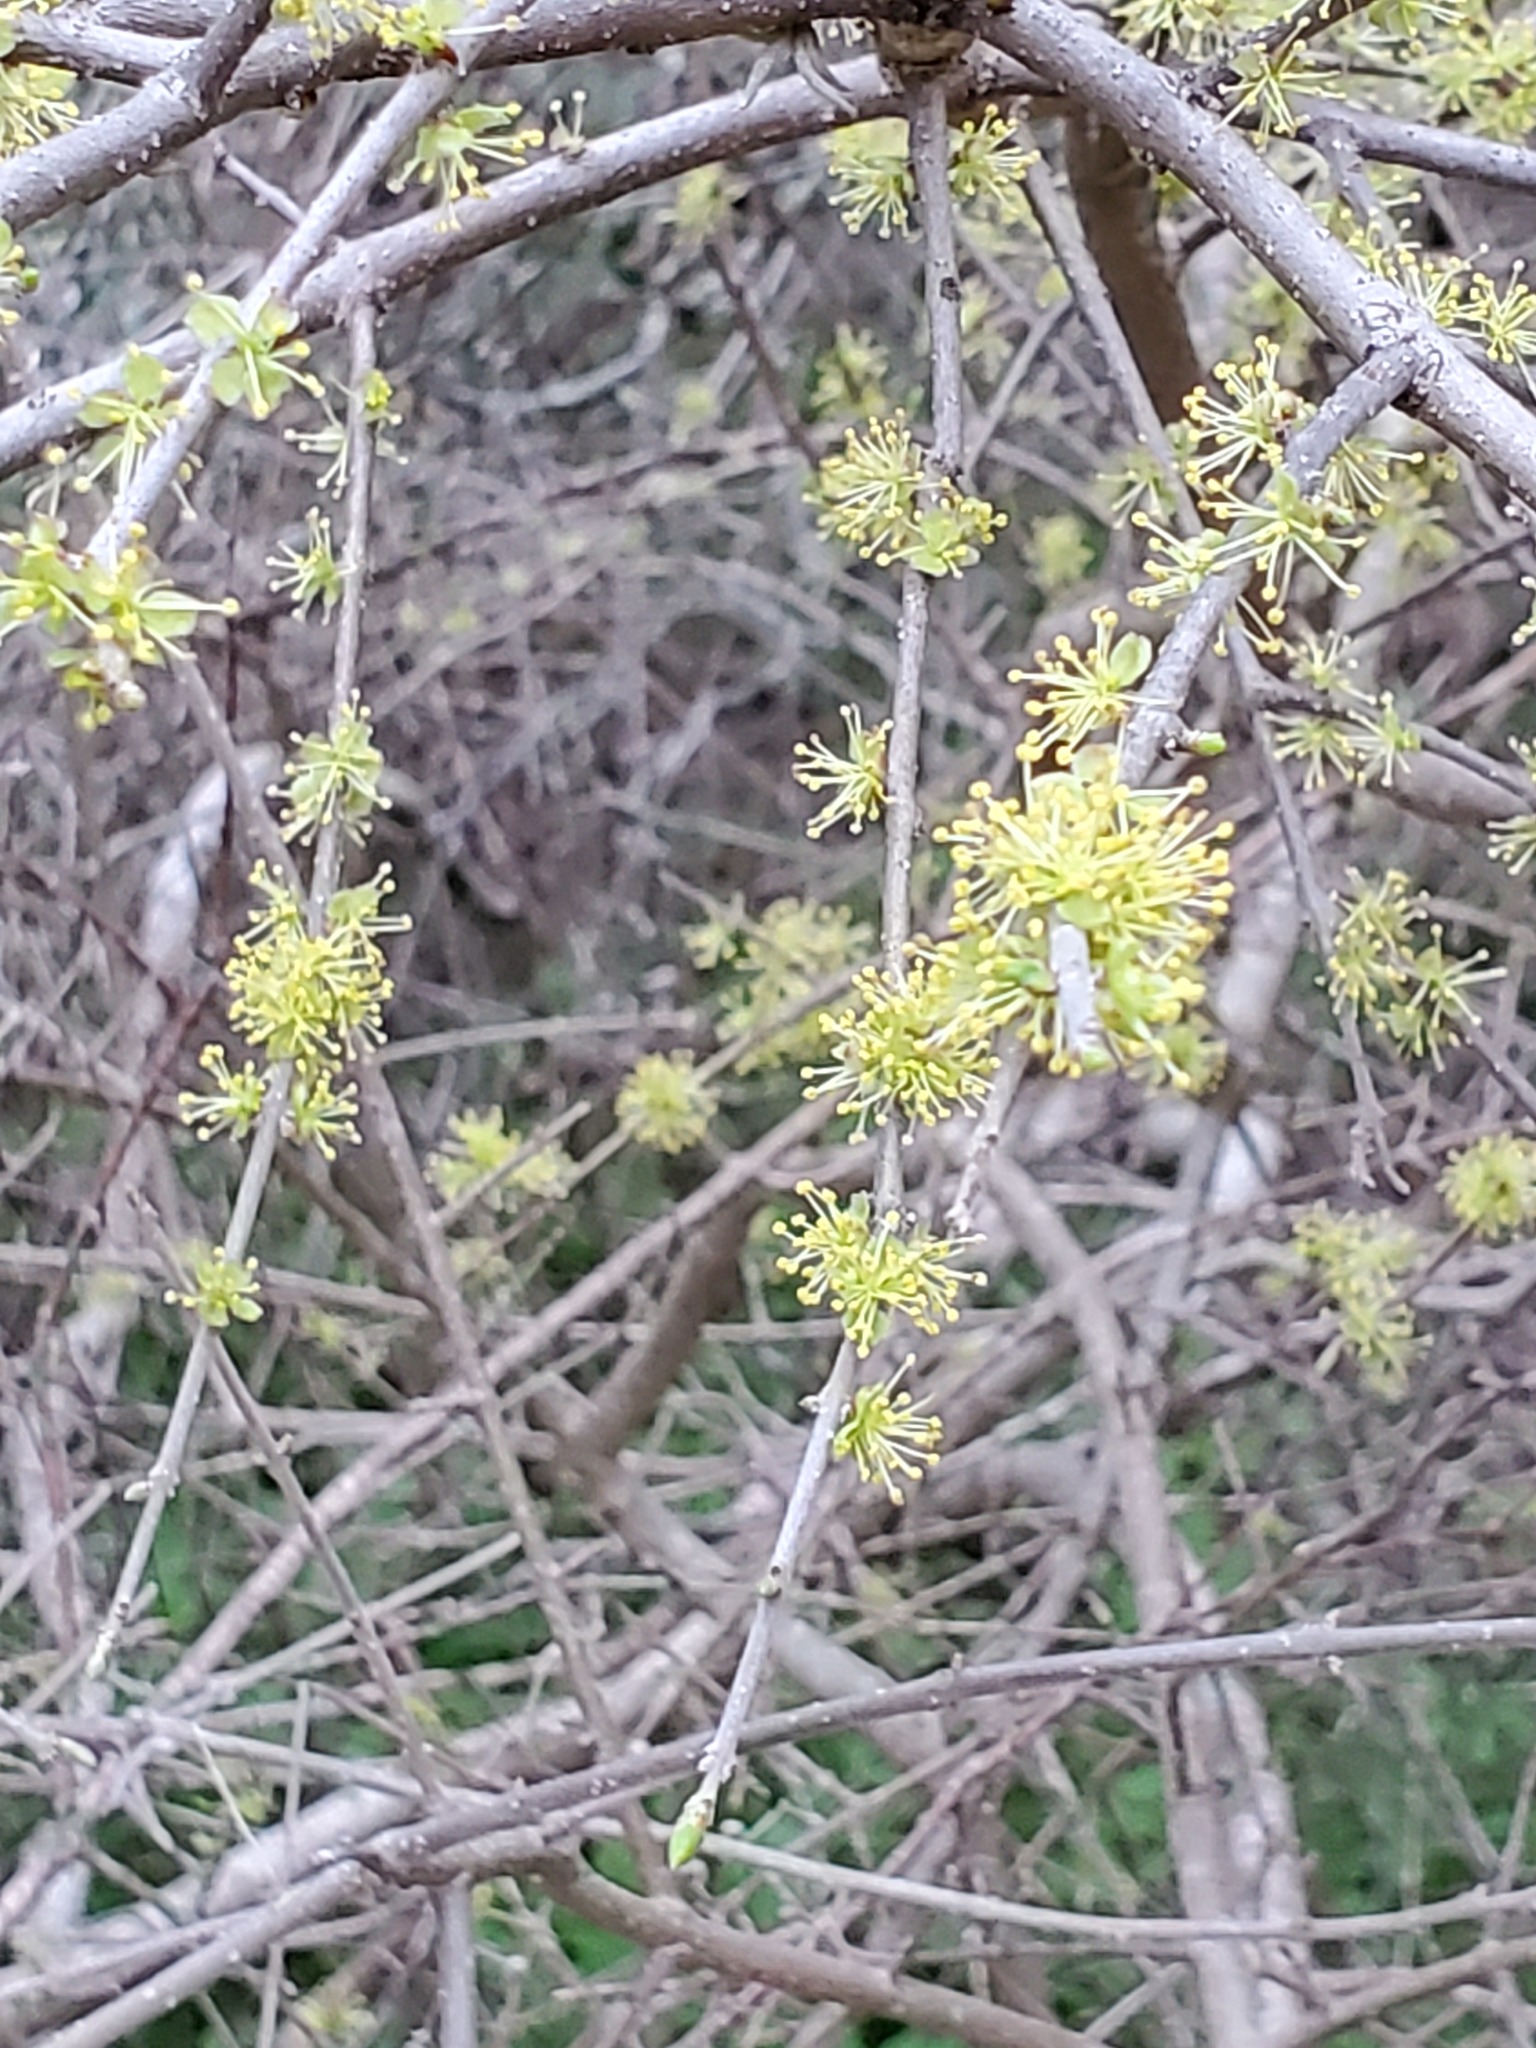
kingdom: Plantae
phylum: Tracheophyta
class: Magnoliopsida
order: Lamiales
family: Oleaceae
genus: Forestiera
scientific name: Forestiera pubescens
